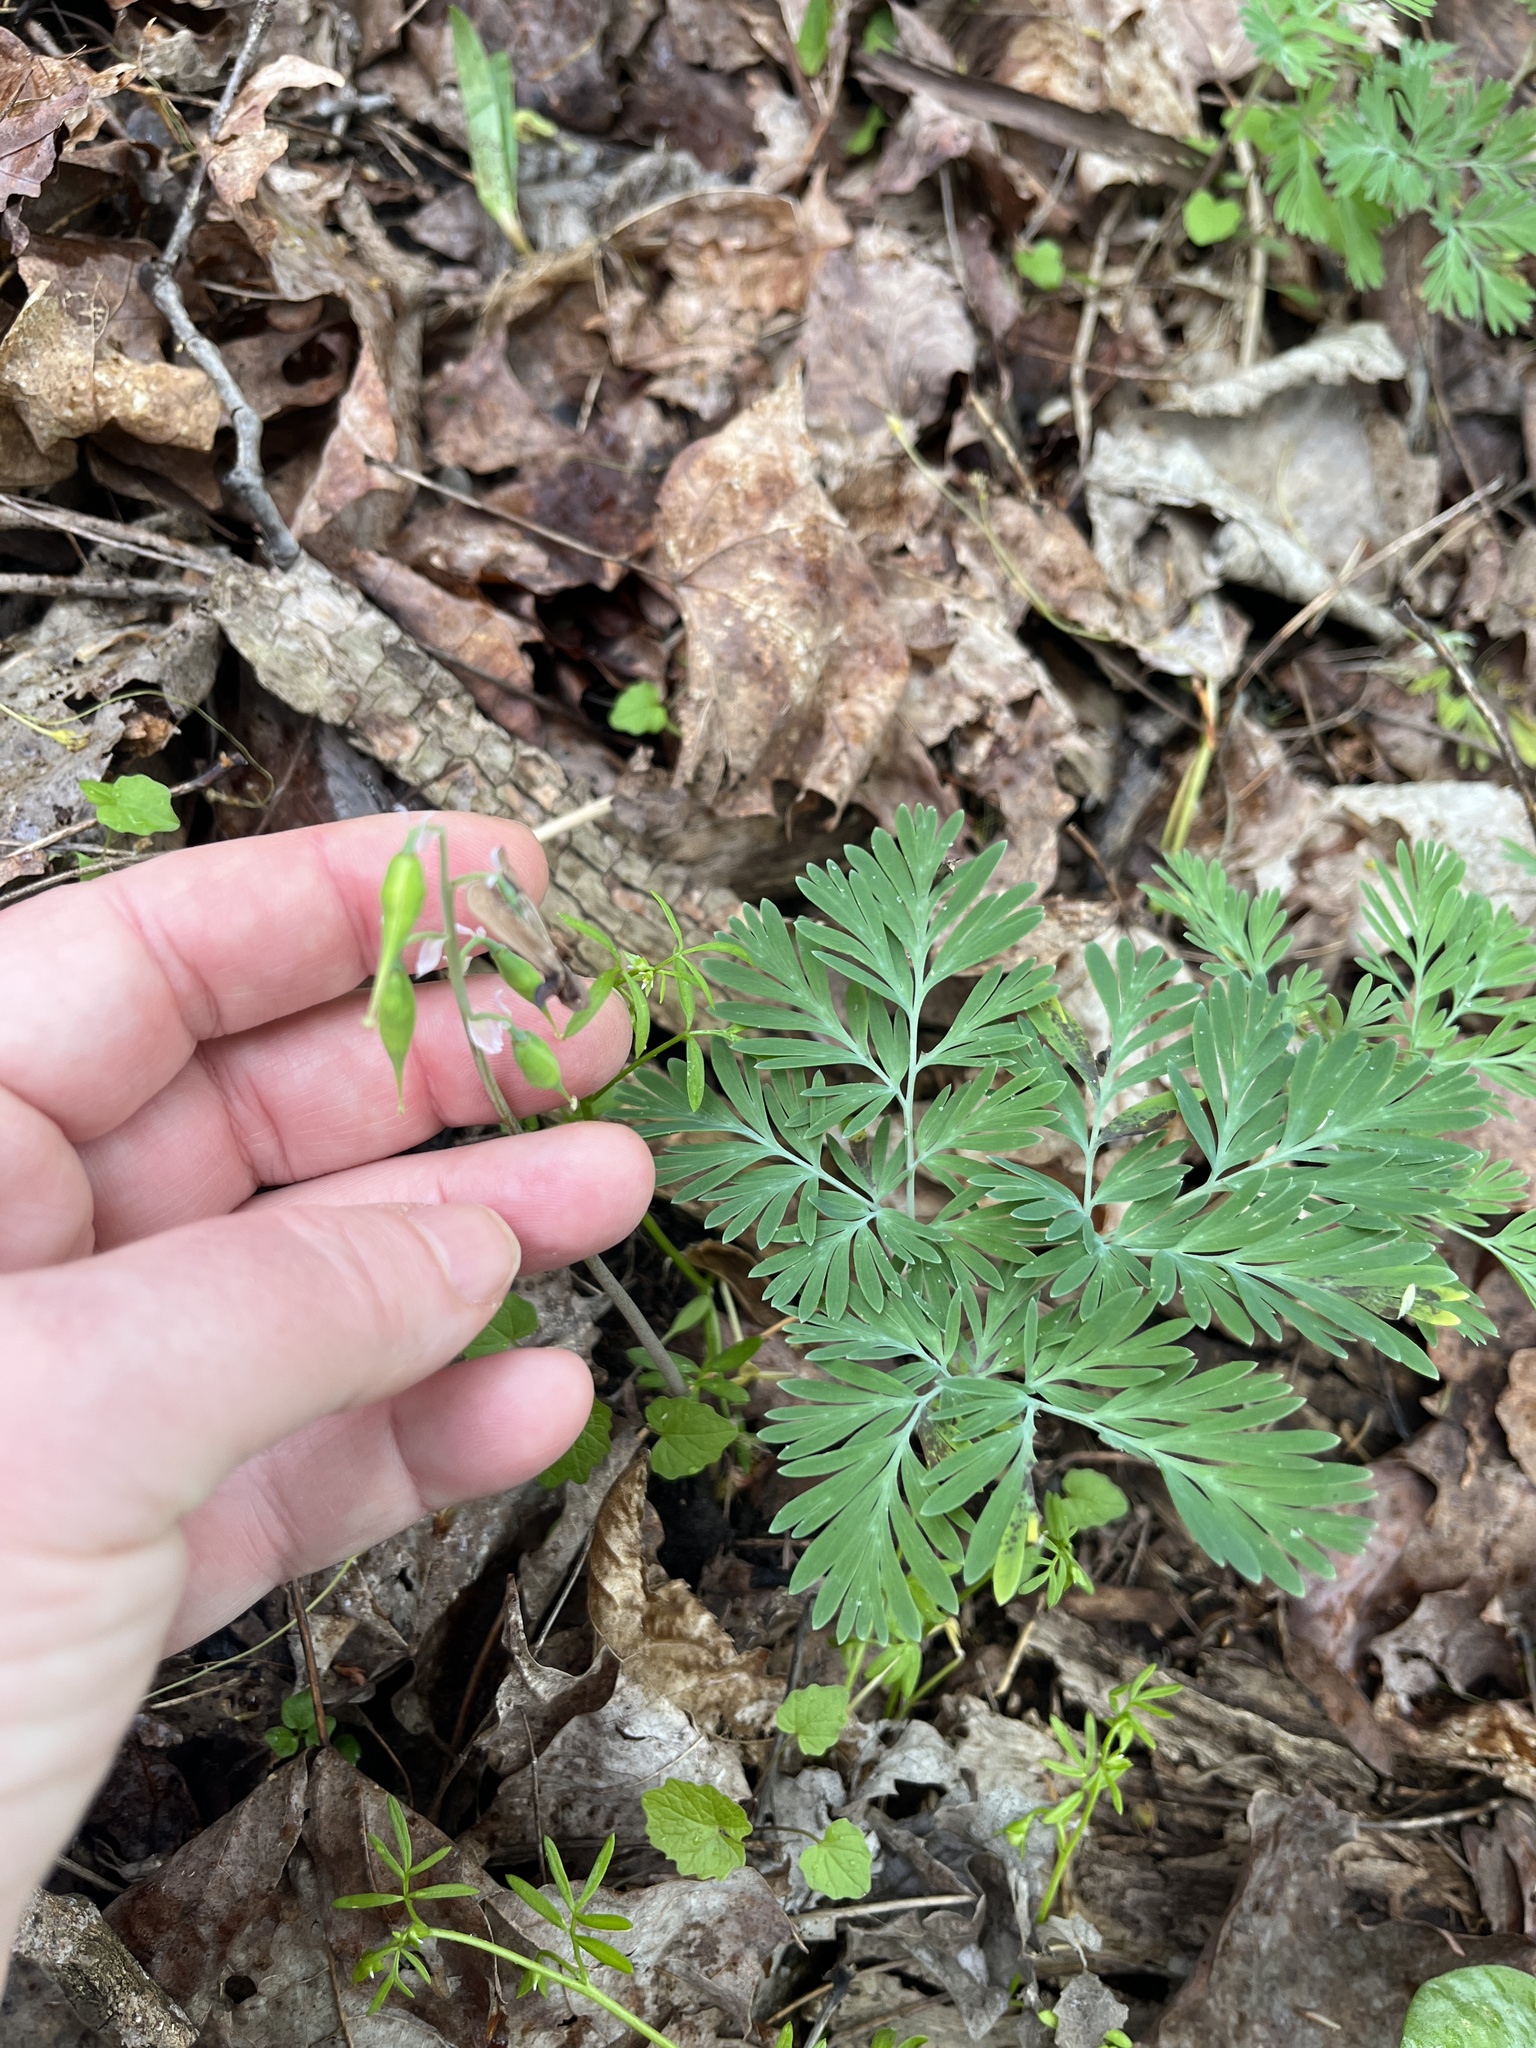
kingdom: Plantae
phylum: Tracheophyta
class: Magnoliopsida
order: Ranunculales
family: Papaveraceae
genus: Dicentra
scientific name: Dicentra canadensis
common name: Squirrel-corn
